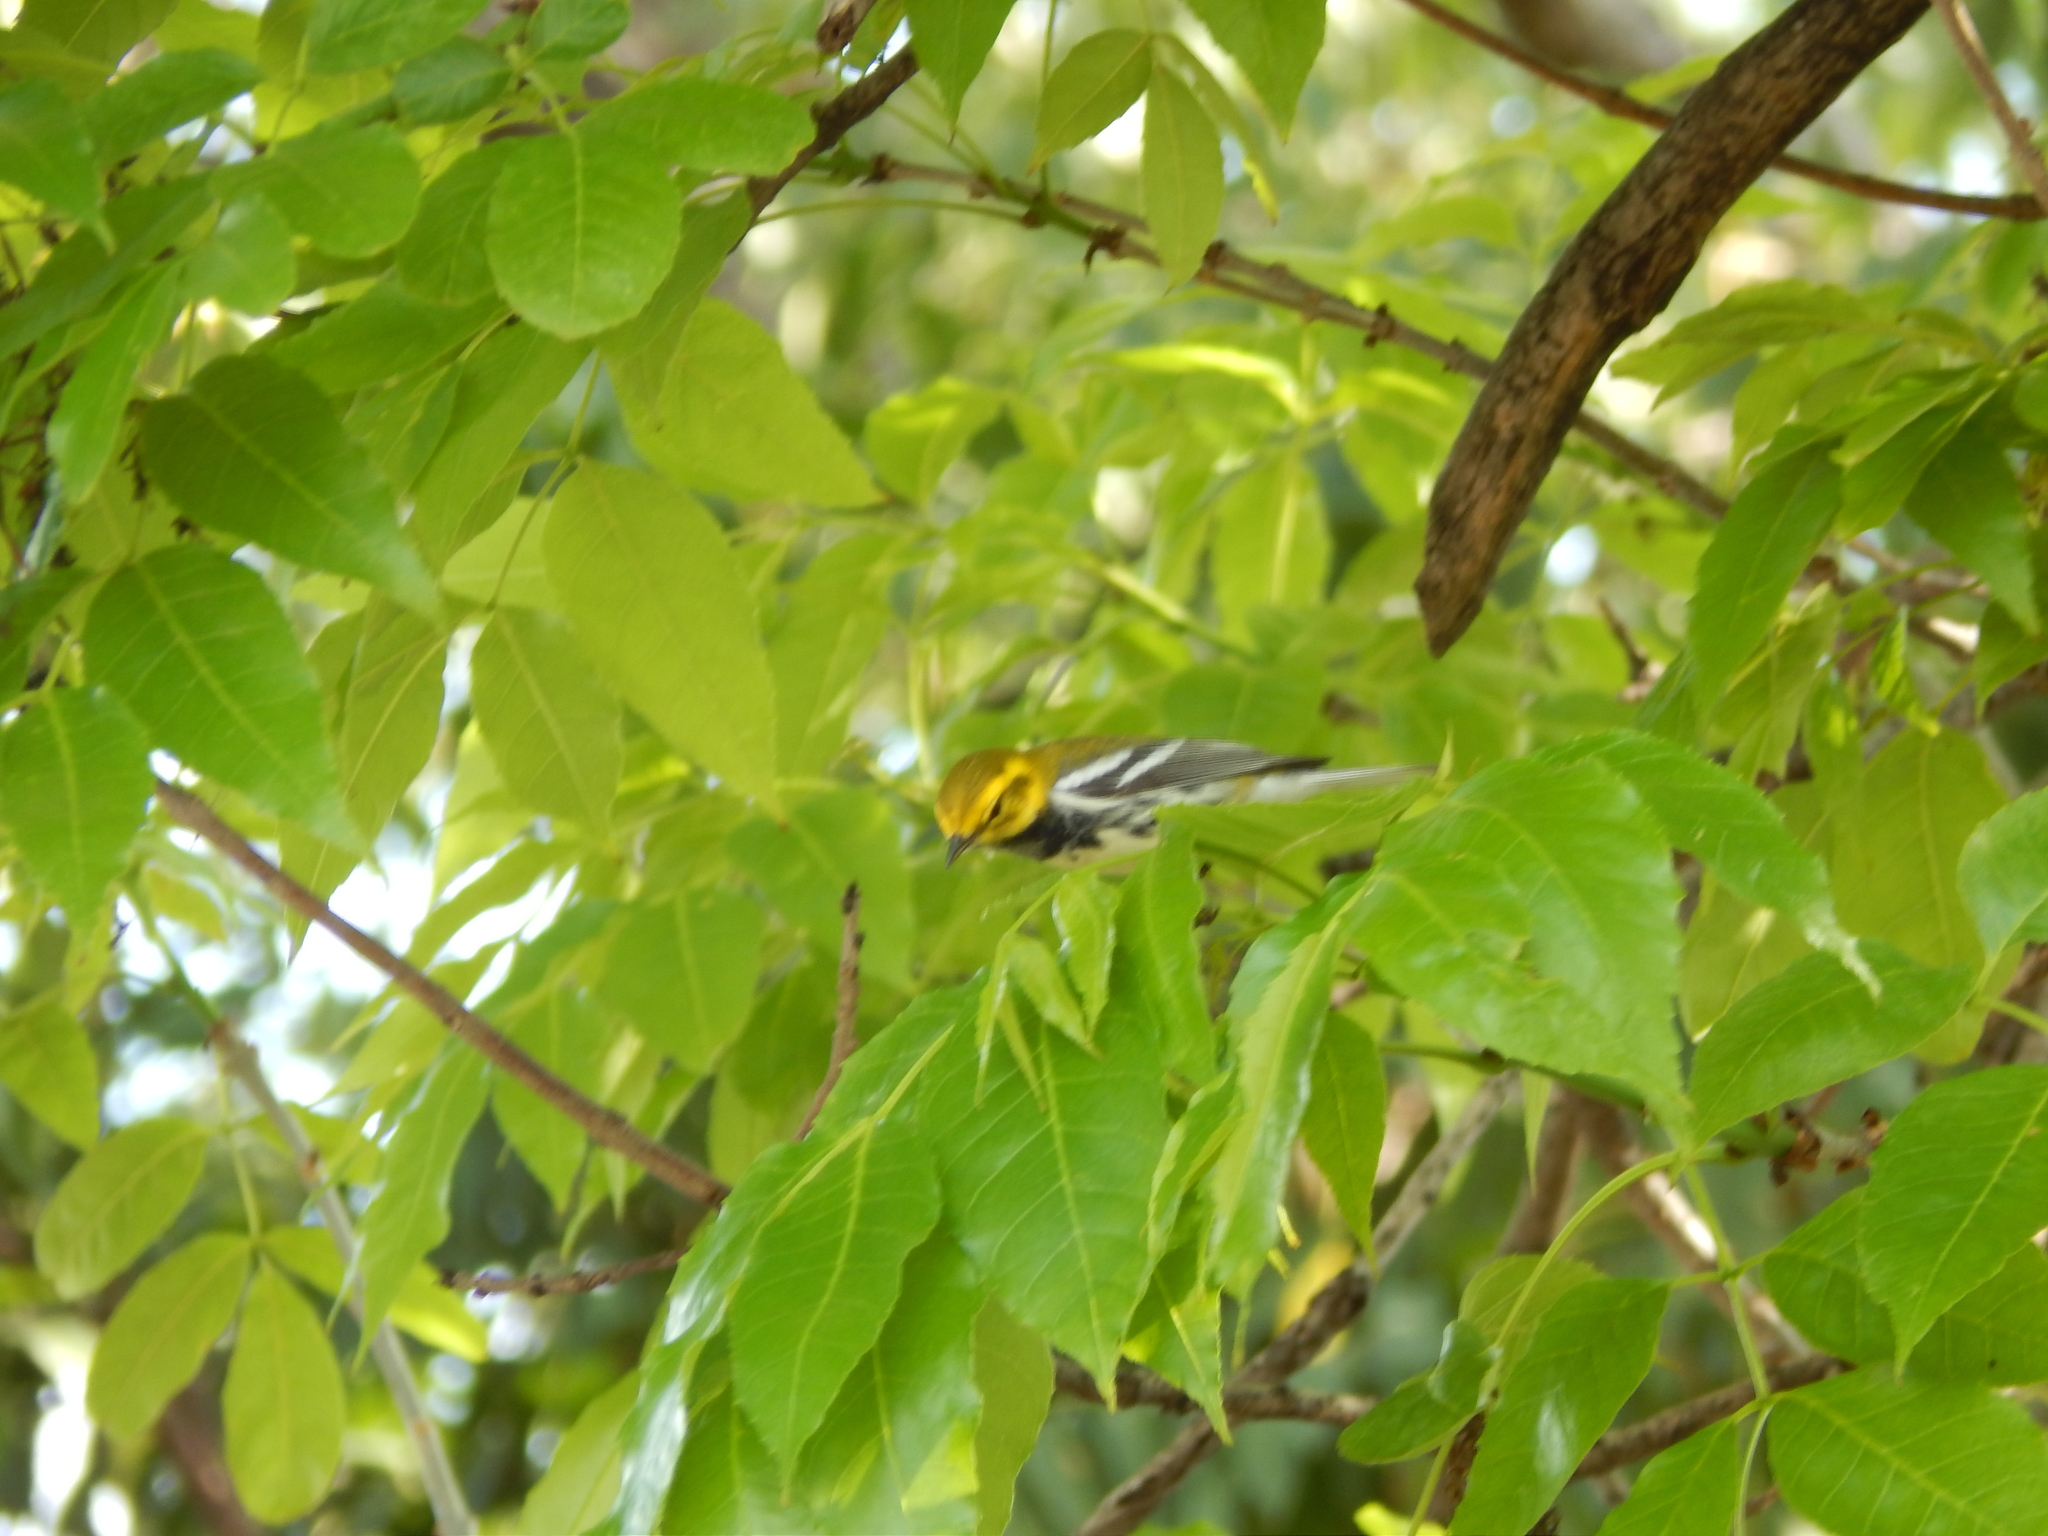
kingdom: Animalia
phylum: Chordata
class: Aves
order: Passeriformes
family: Parulidae
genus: Setophaga
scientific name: Setophaga virens
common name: Black-throated green warbler
